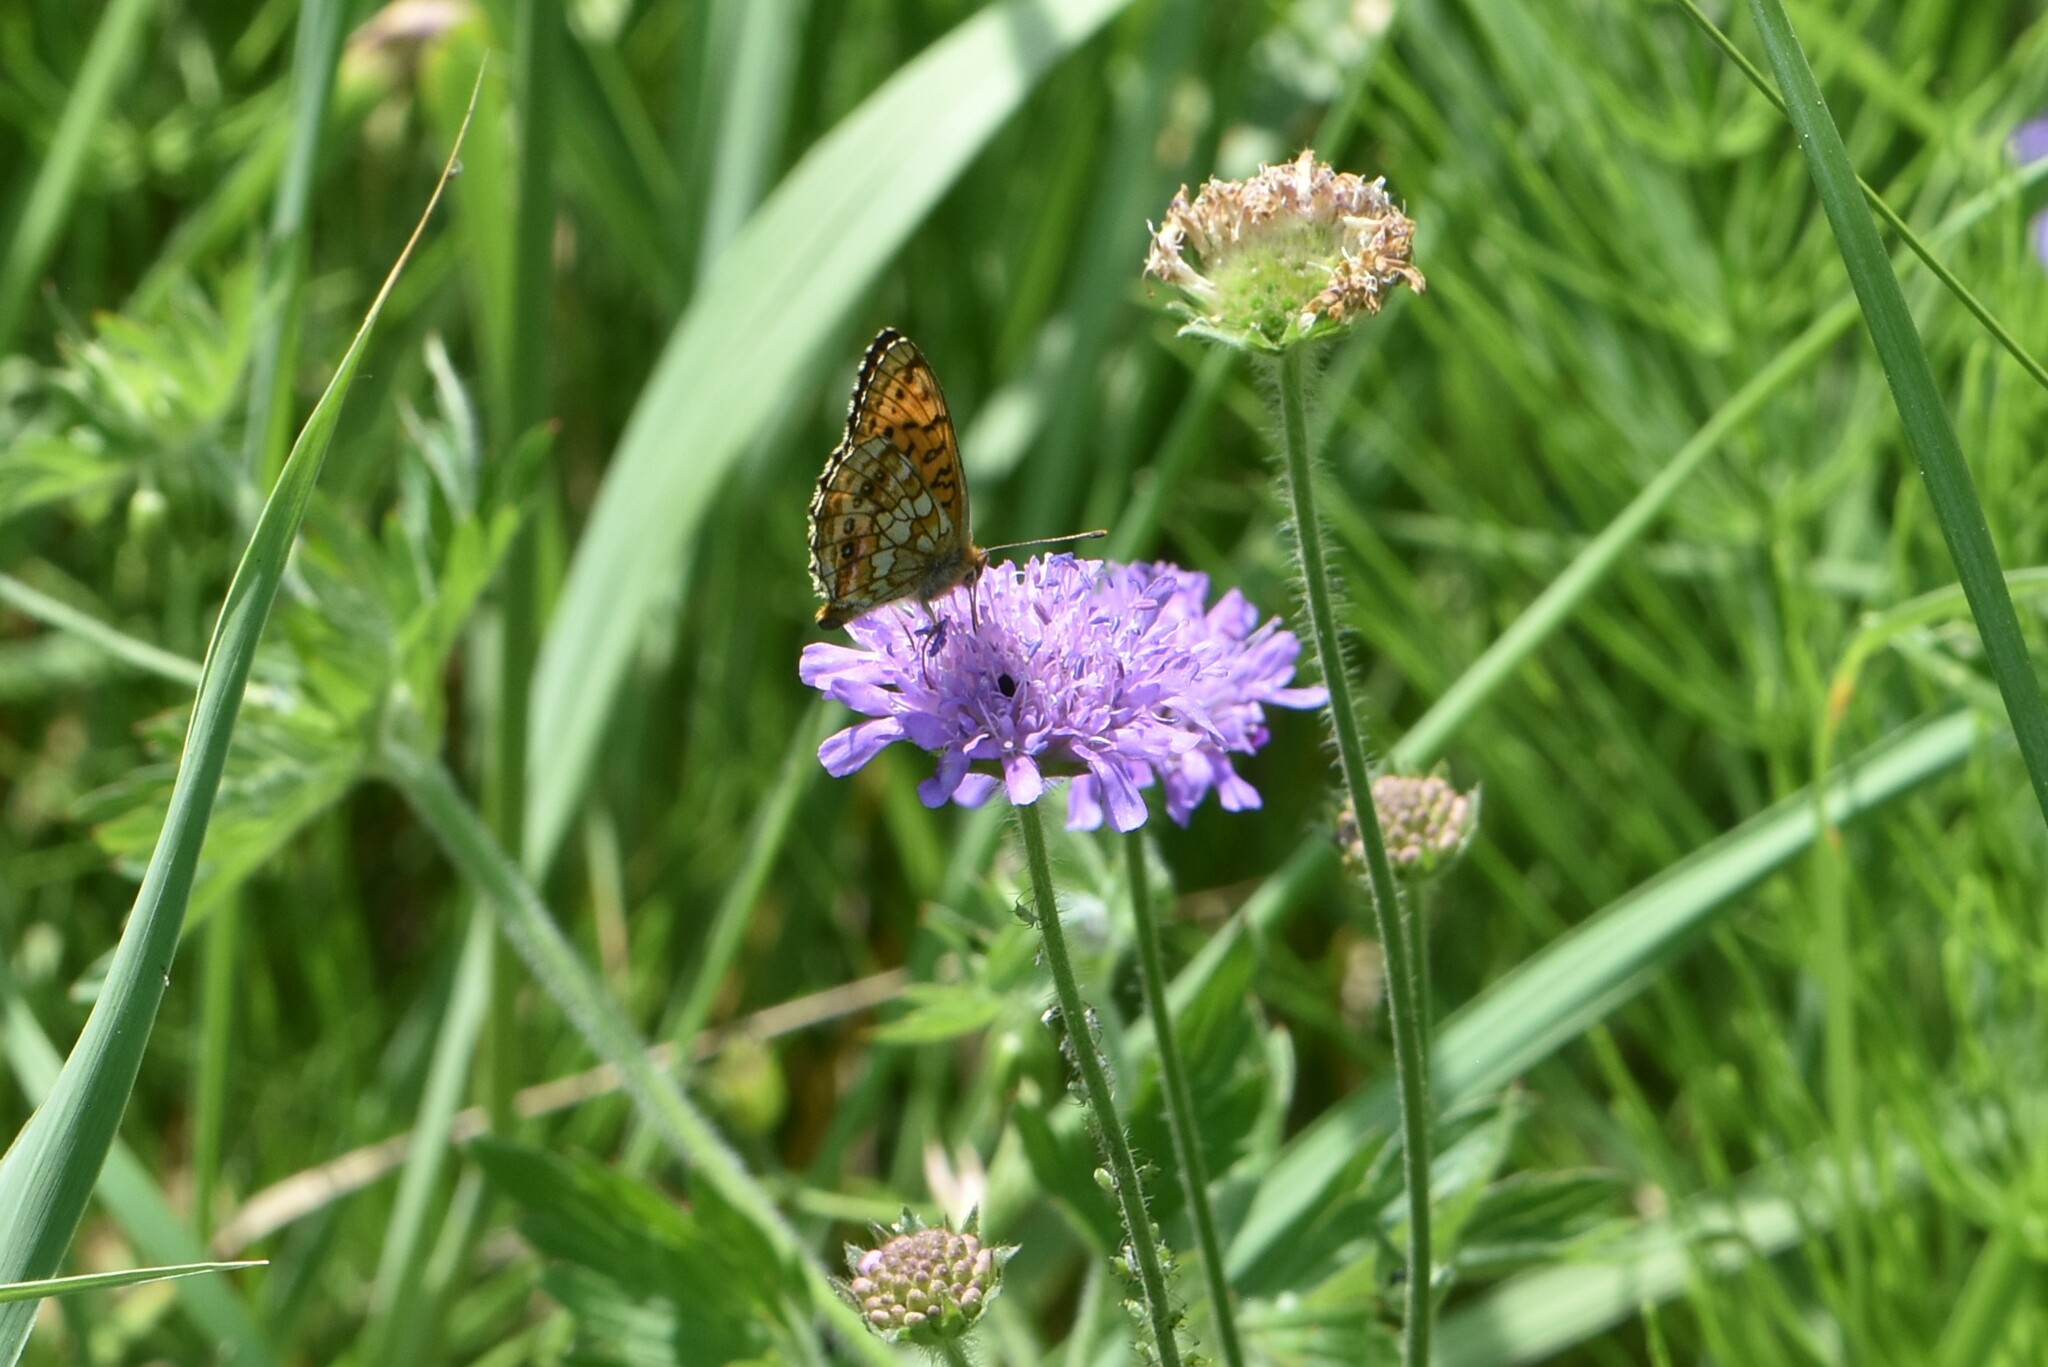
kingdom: Animalia
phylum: Arthropoda
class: Insecta
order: Lepidoptera
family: Nymphalidae
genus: Brenthis
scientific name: Brenthis ino
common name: Lesser marbled fritillary
